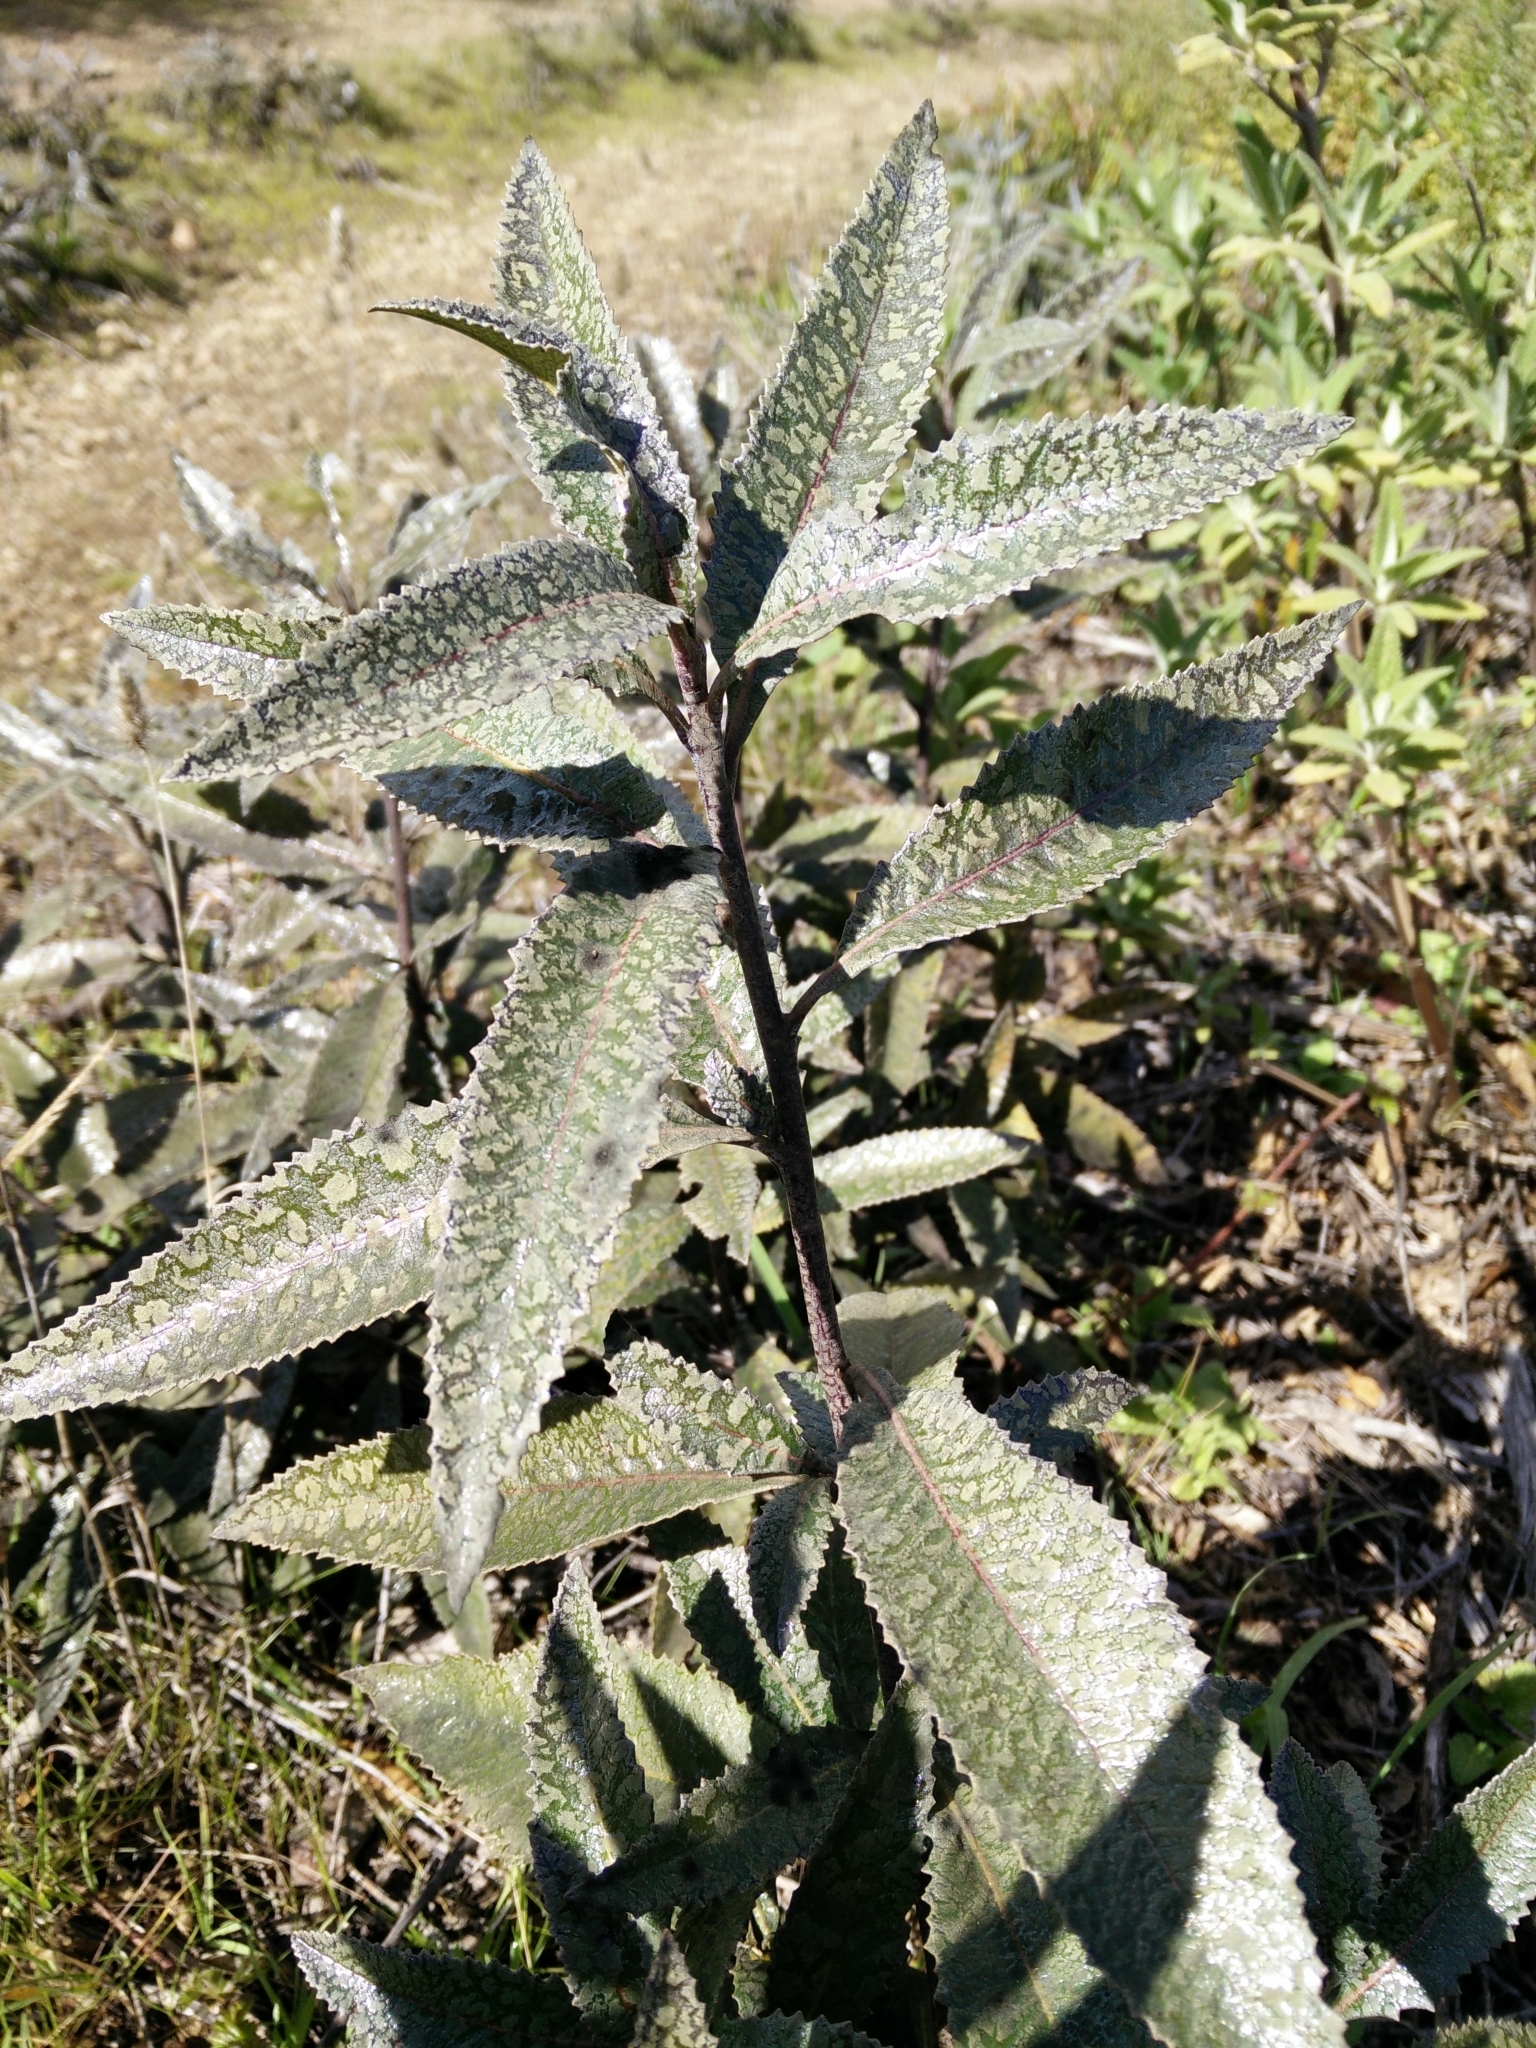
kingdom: Plantae
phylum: Tracheophyta
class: Magnoliopsida
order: Boraginales
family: Namaceae
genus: Eriodictyon
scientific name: Eriodictyon californicum
